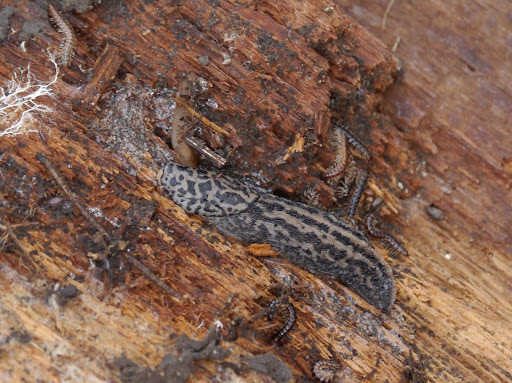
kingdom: Animalia
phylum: Mollusca
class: Gastropoda
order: Stylommatophora
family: Limacidae
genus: Limax
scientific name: Limax maximus
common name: Great grey slug
